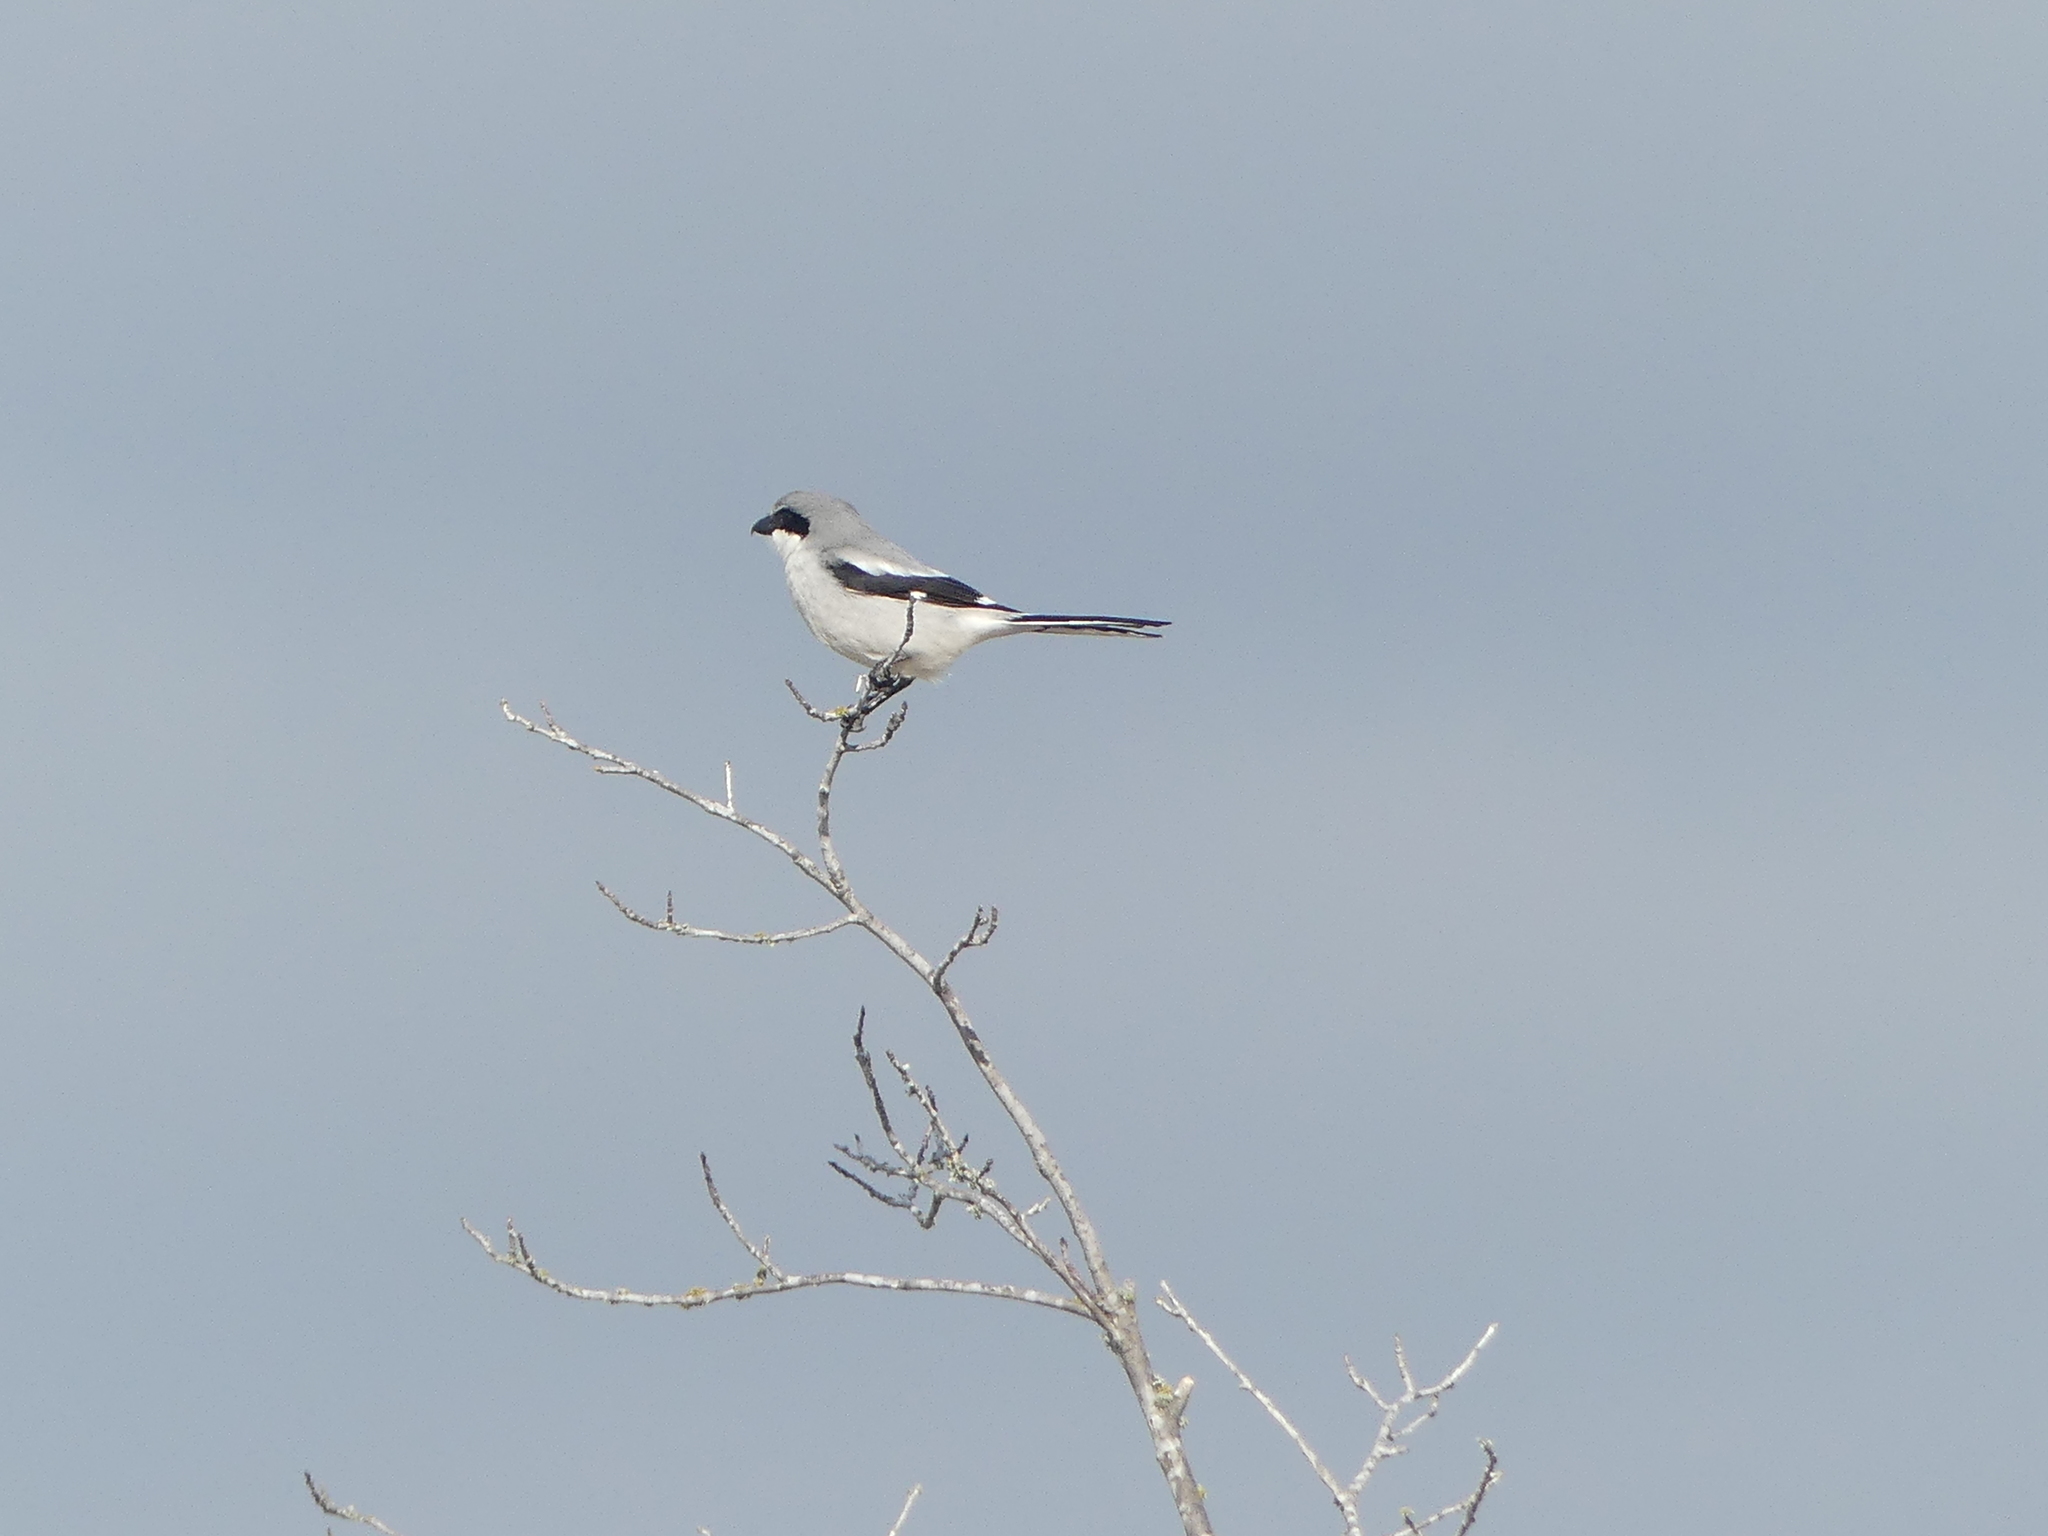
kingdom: Animalia
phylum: Chordata
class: Aves
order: Passeriformes
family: Laniidae
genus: Lanius
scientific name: Lanius ludovicianus
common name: Loggerhead shrike
